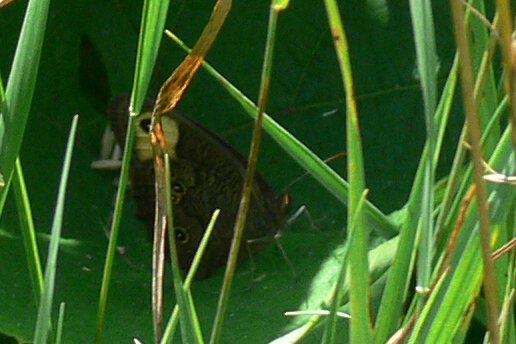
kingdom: Animalia
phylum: Arthropoda
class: Insecta
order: Lepidoptera
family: Nymphalidae
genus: Cercyonis
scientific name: Cercyonis pegala
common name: Common wood-nymph
